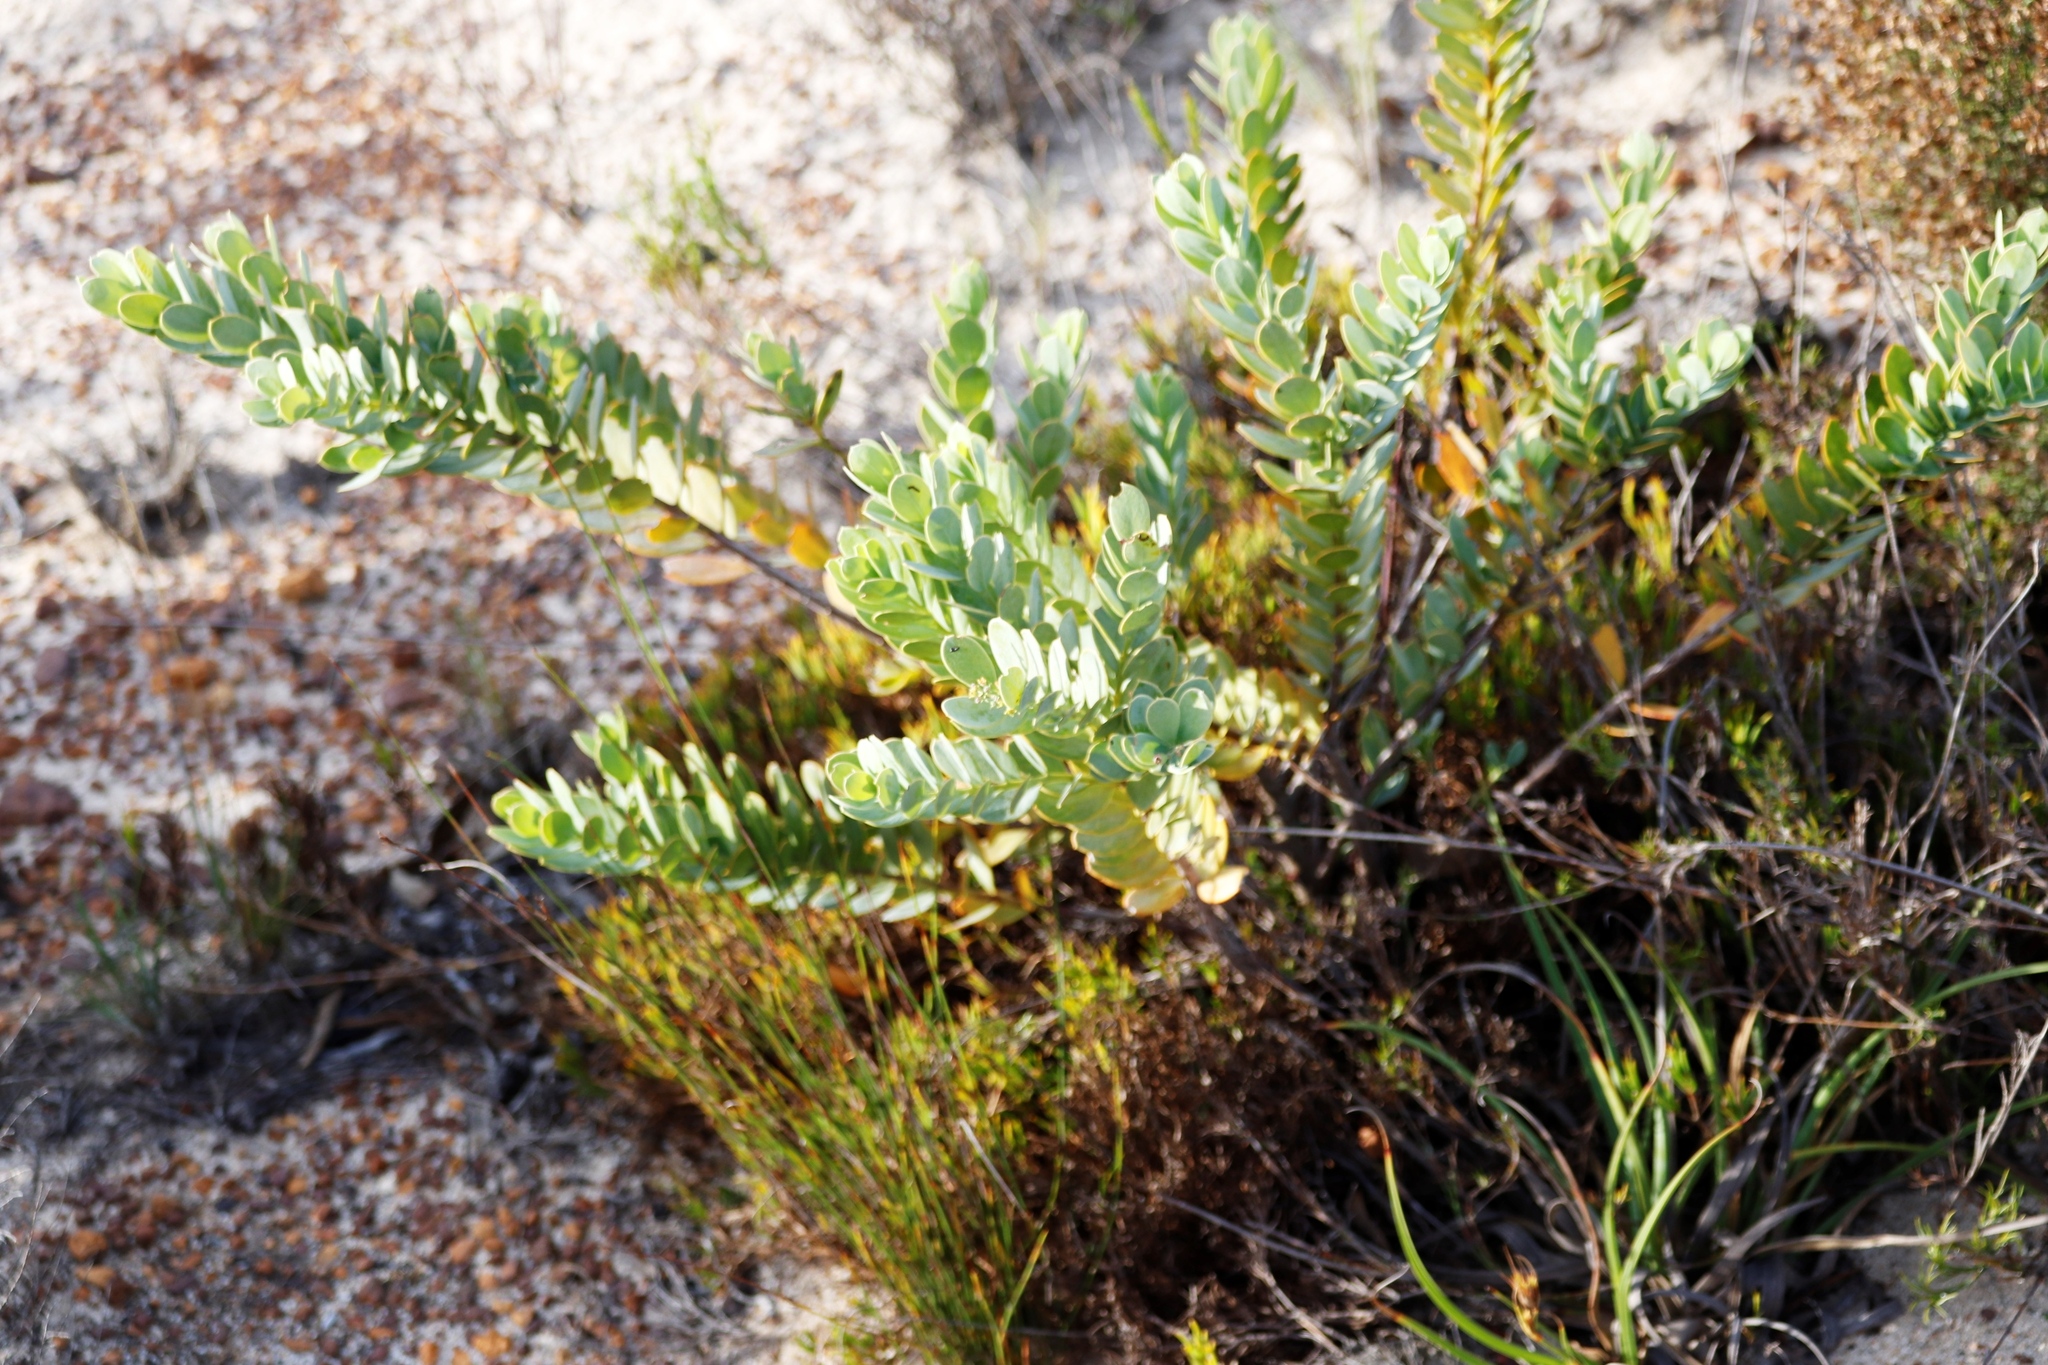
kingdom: Plantae
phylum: Tracheophyta
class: Magnoliopsida
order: Santalales
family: Santalaceae
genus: Osyris
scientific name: Osyris compressa
